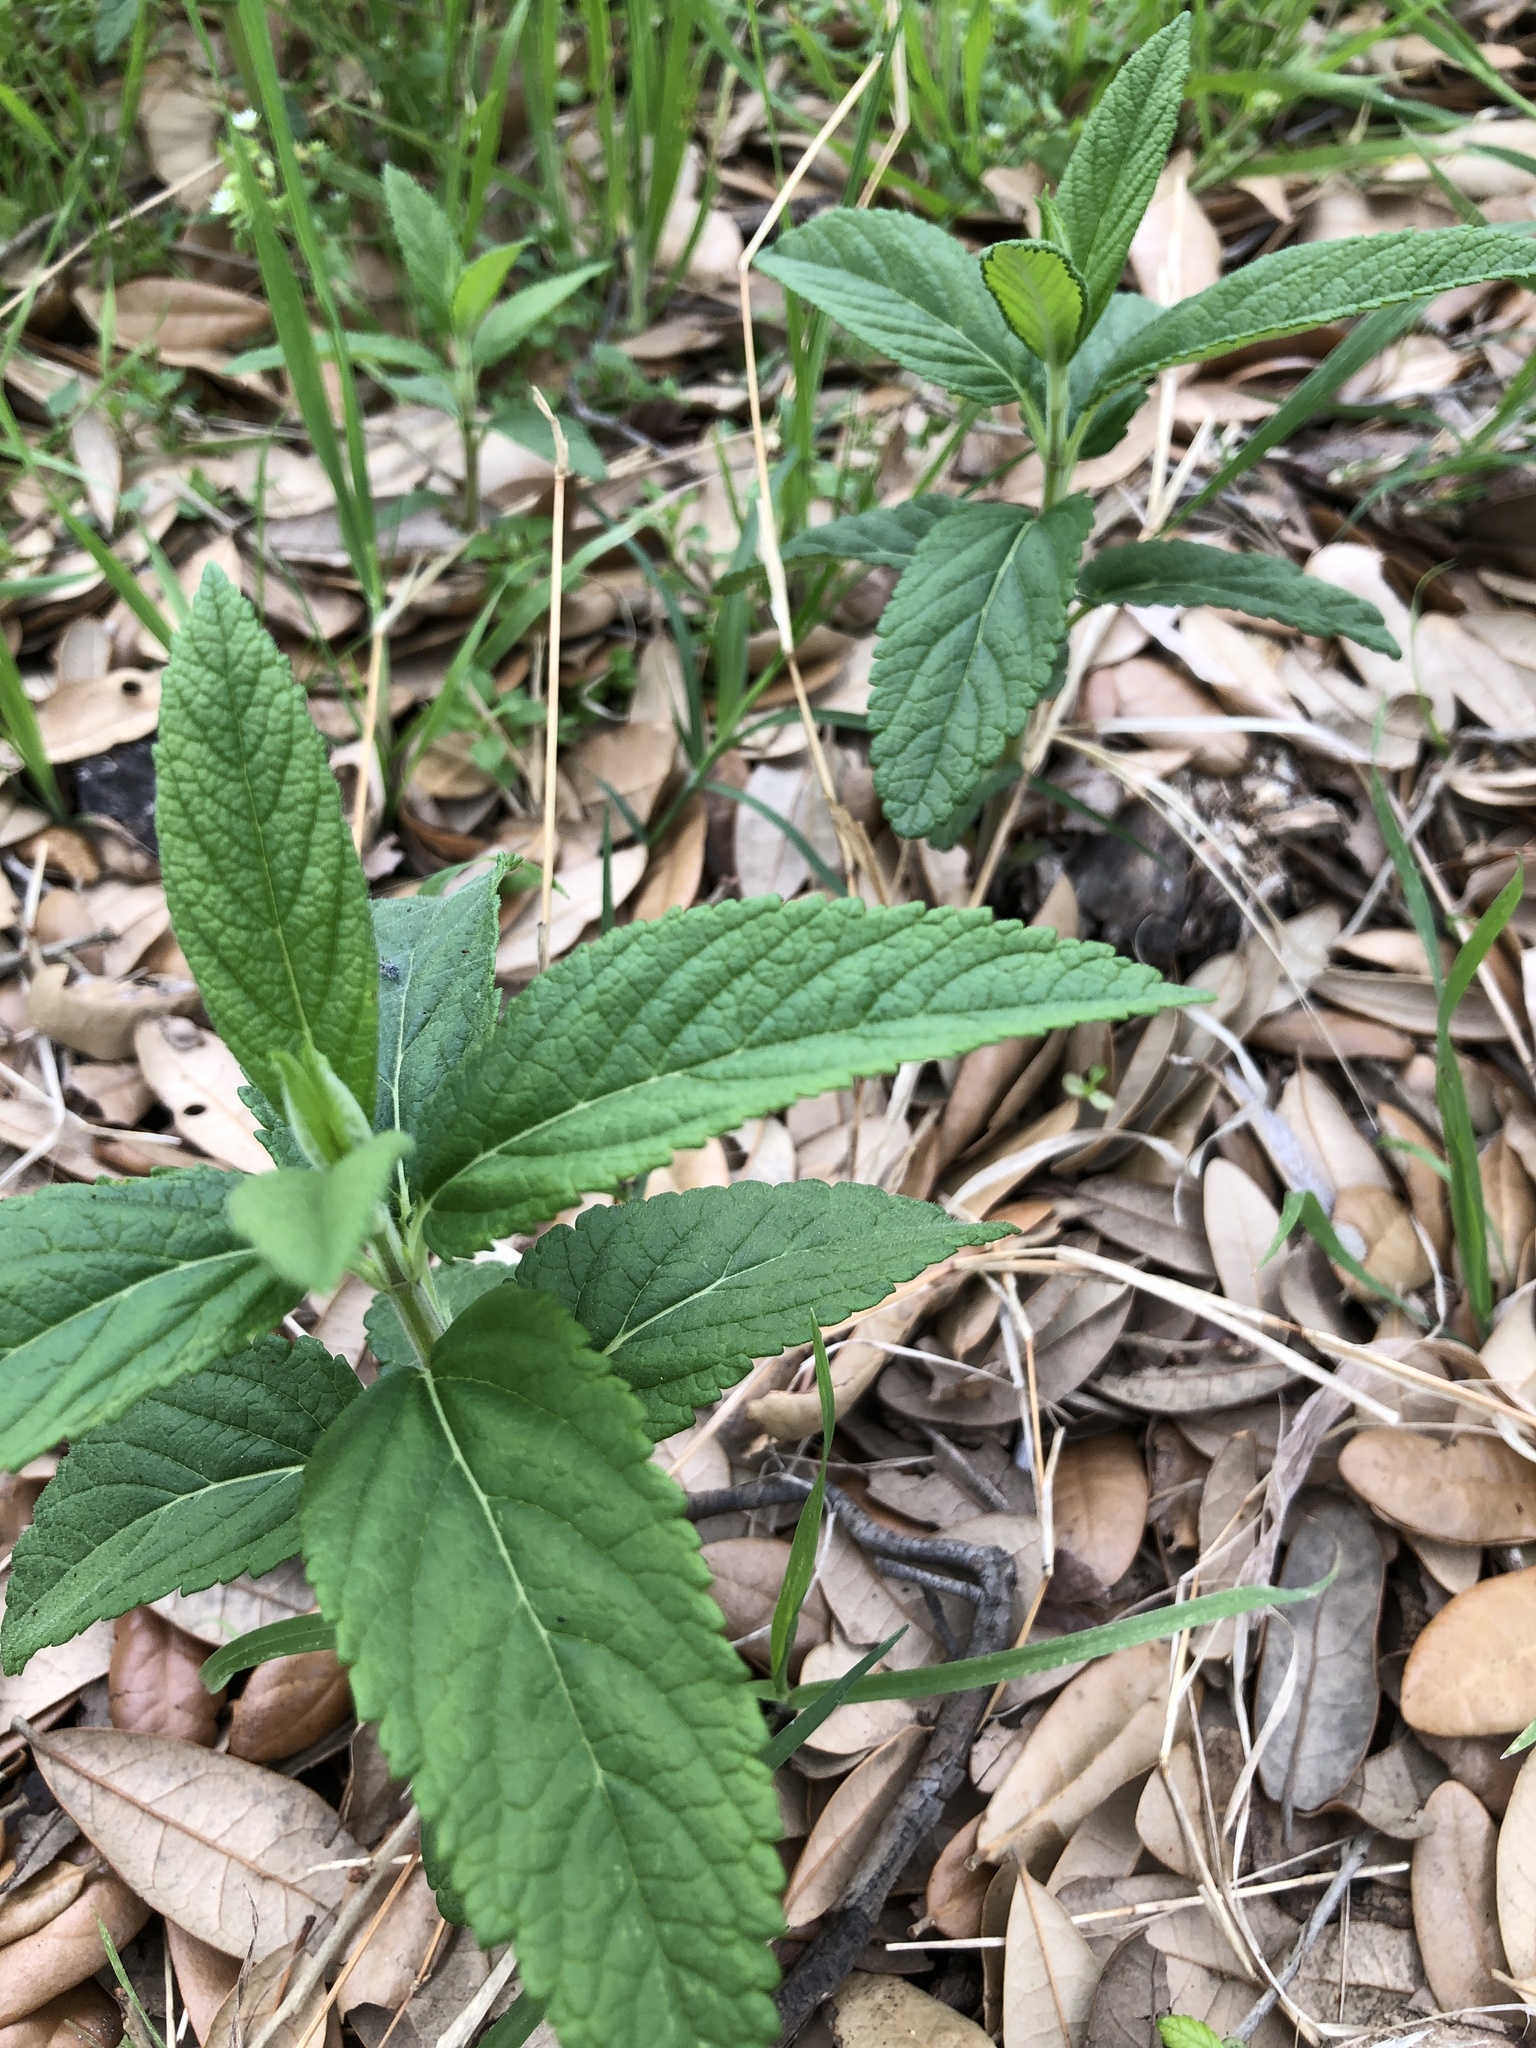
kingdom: Plantae
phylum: Tracheophyta
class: Magnoliopsida
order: Lamiales
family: Lamiaceae
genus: Teucrium
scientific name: Teucrium canadense
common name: American germander
